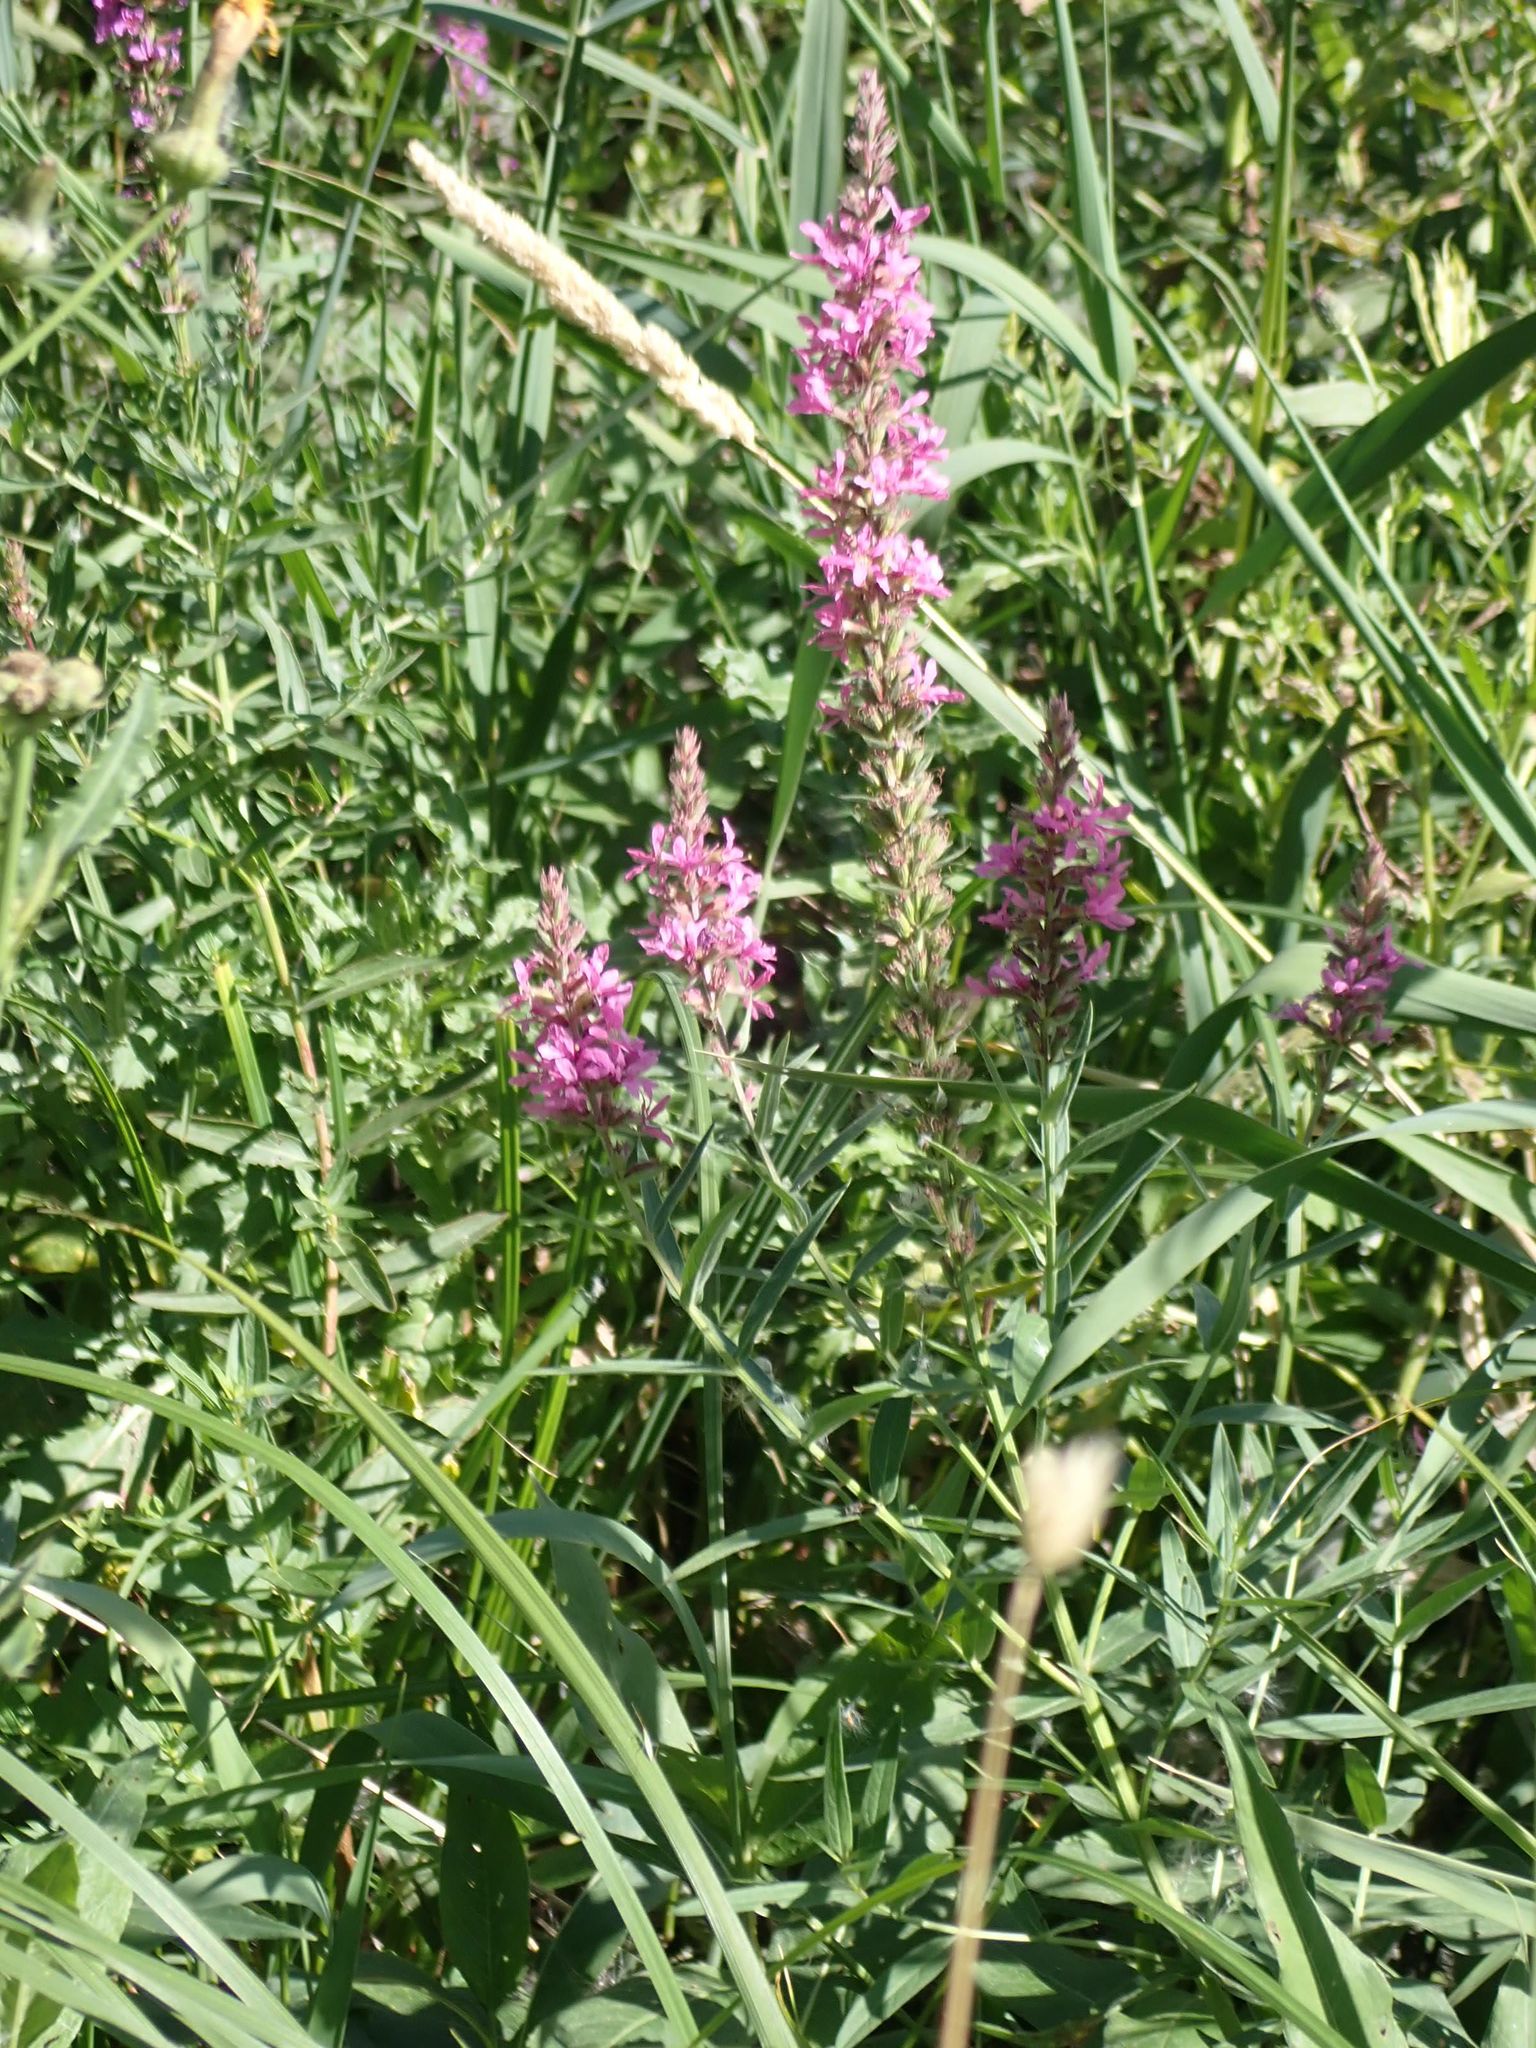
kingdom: Plantae
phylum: Tracheophyta
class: Magnoliopsida
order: Myrtales
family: Lythraceae
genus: Lythrum
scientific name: Lythrum salicaria
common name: Purple loosestrife
